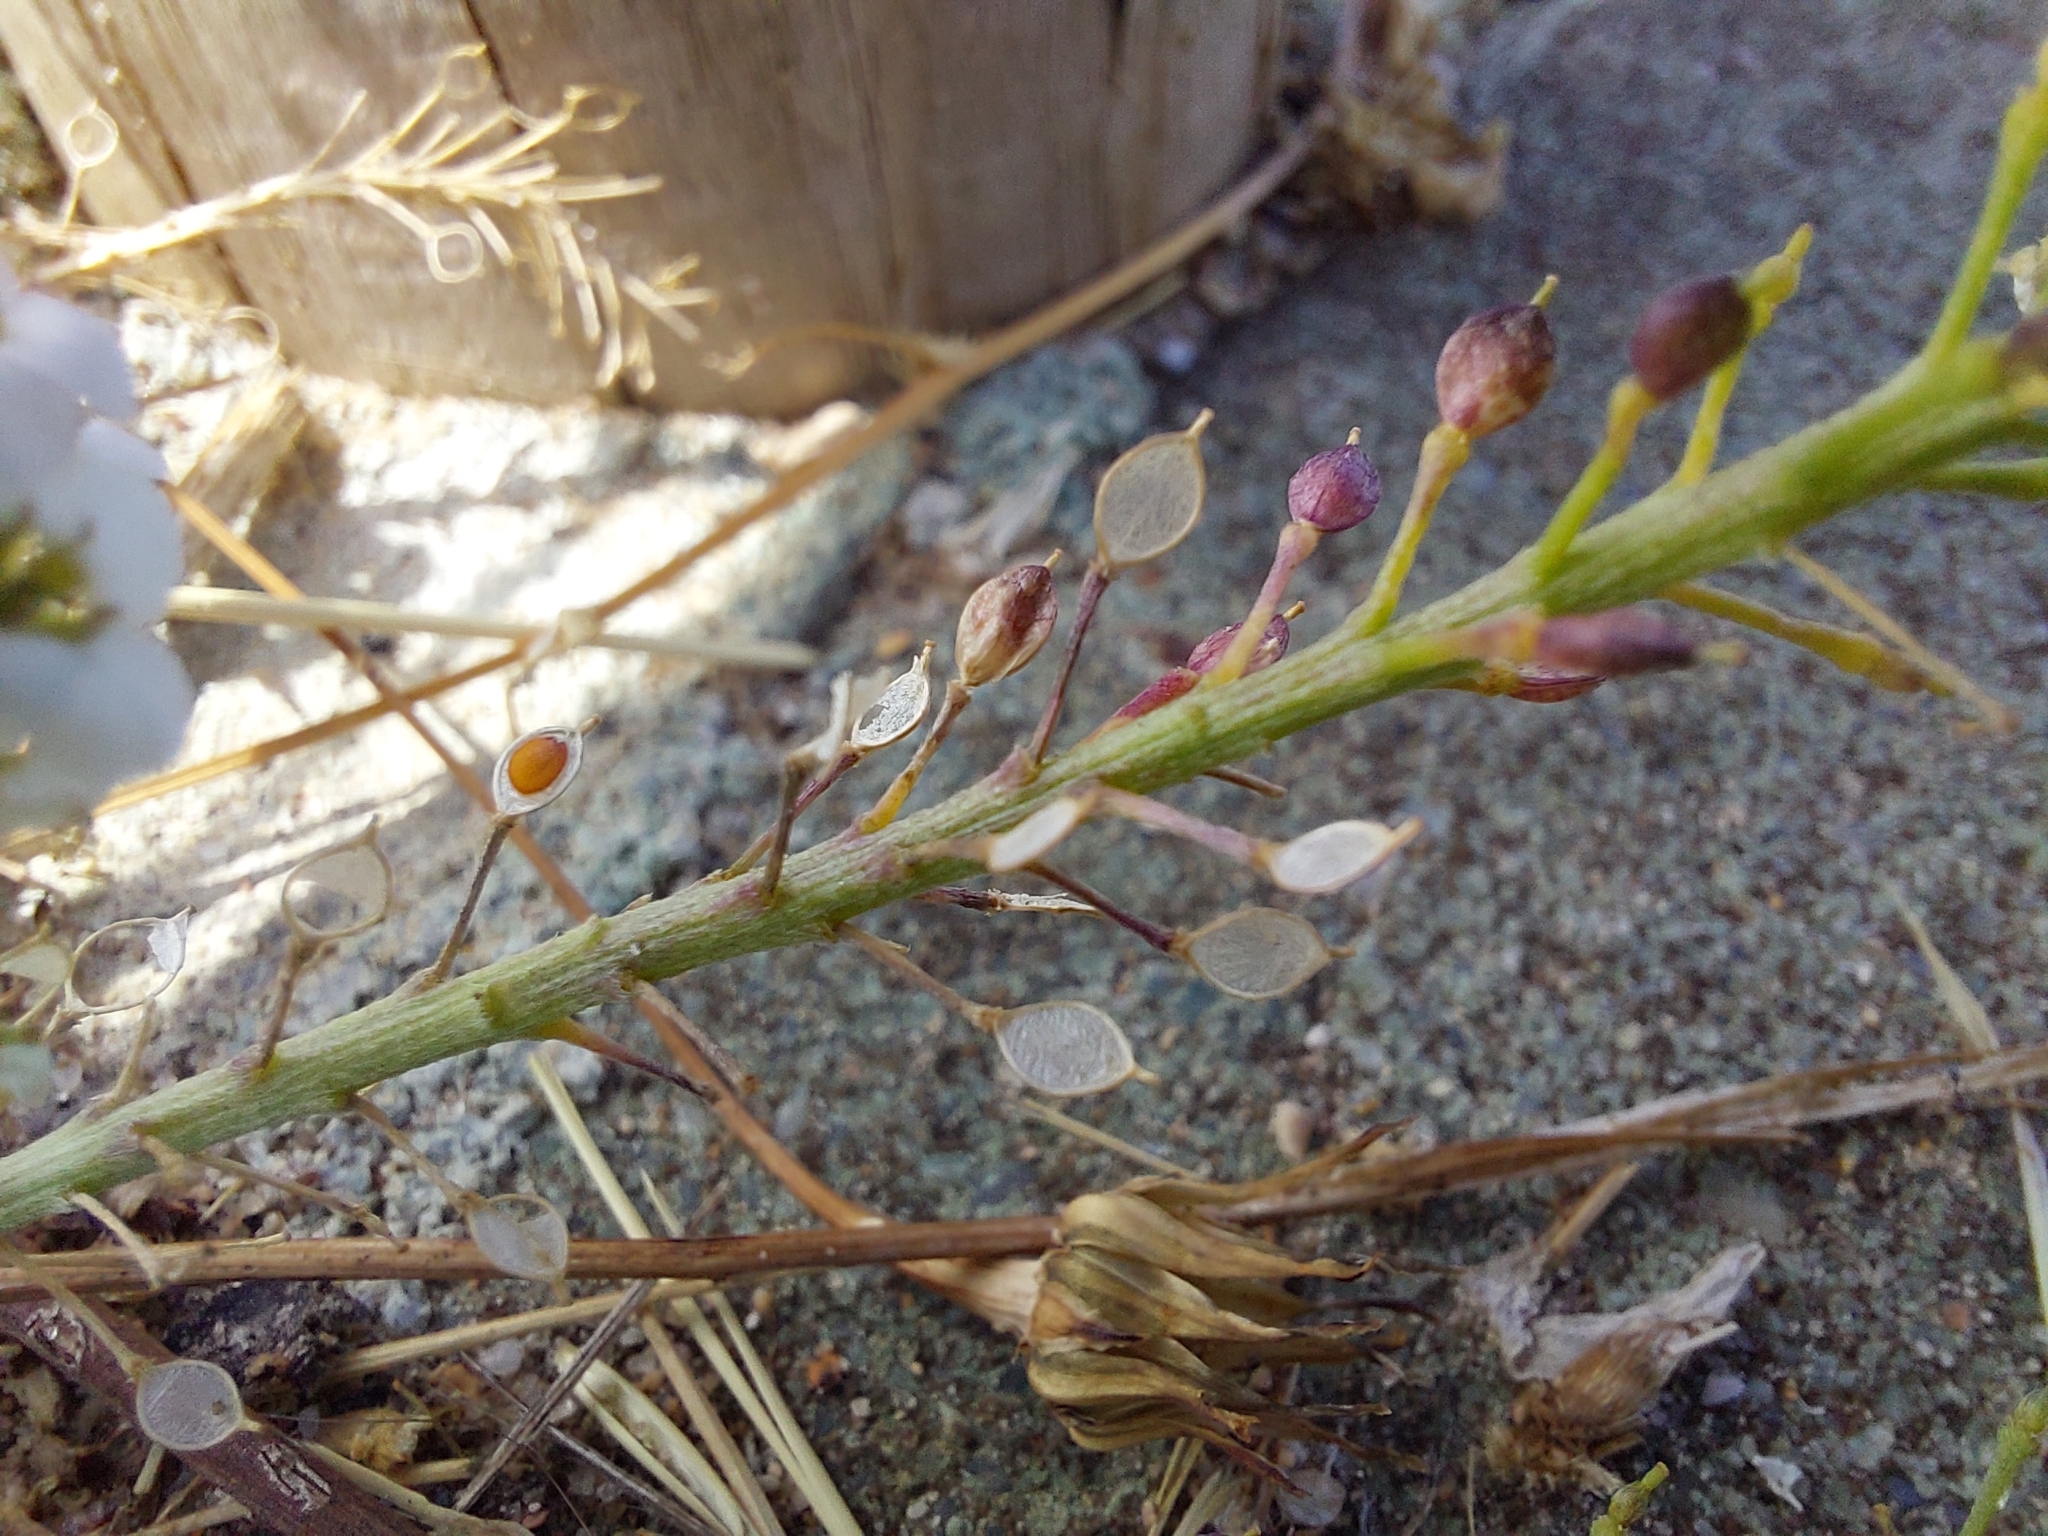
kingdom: Plantae
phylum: Tracheophyta
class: Magnoliopsida
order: Brassicales
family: Brassicaceae
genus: Lobularia
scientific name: Lobularia maritima
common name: Sweet alison
